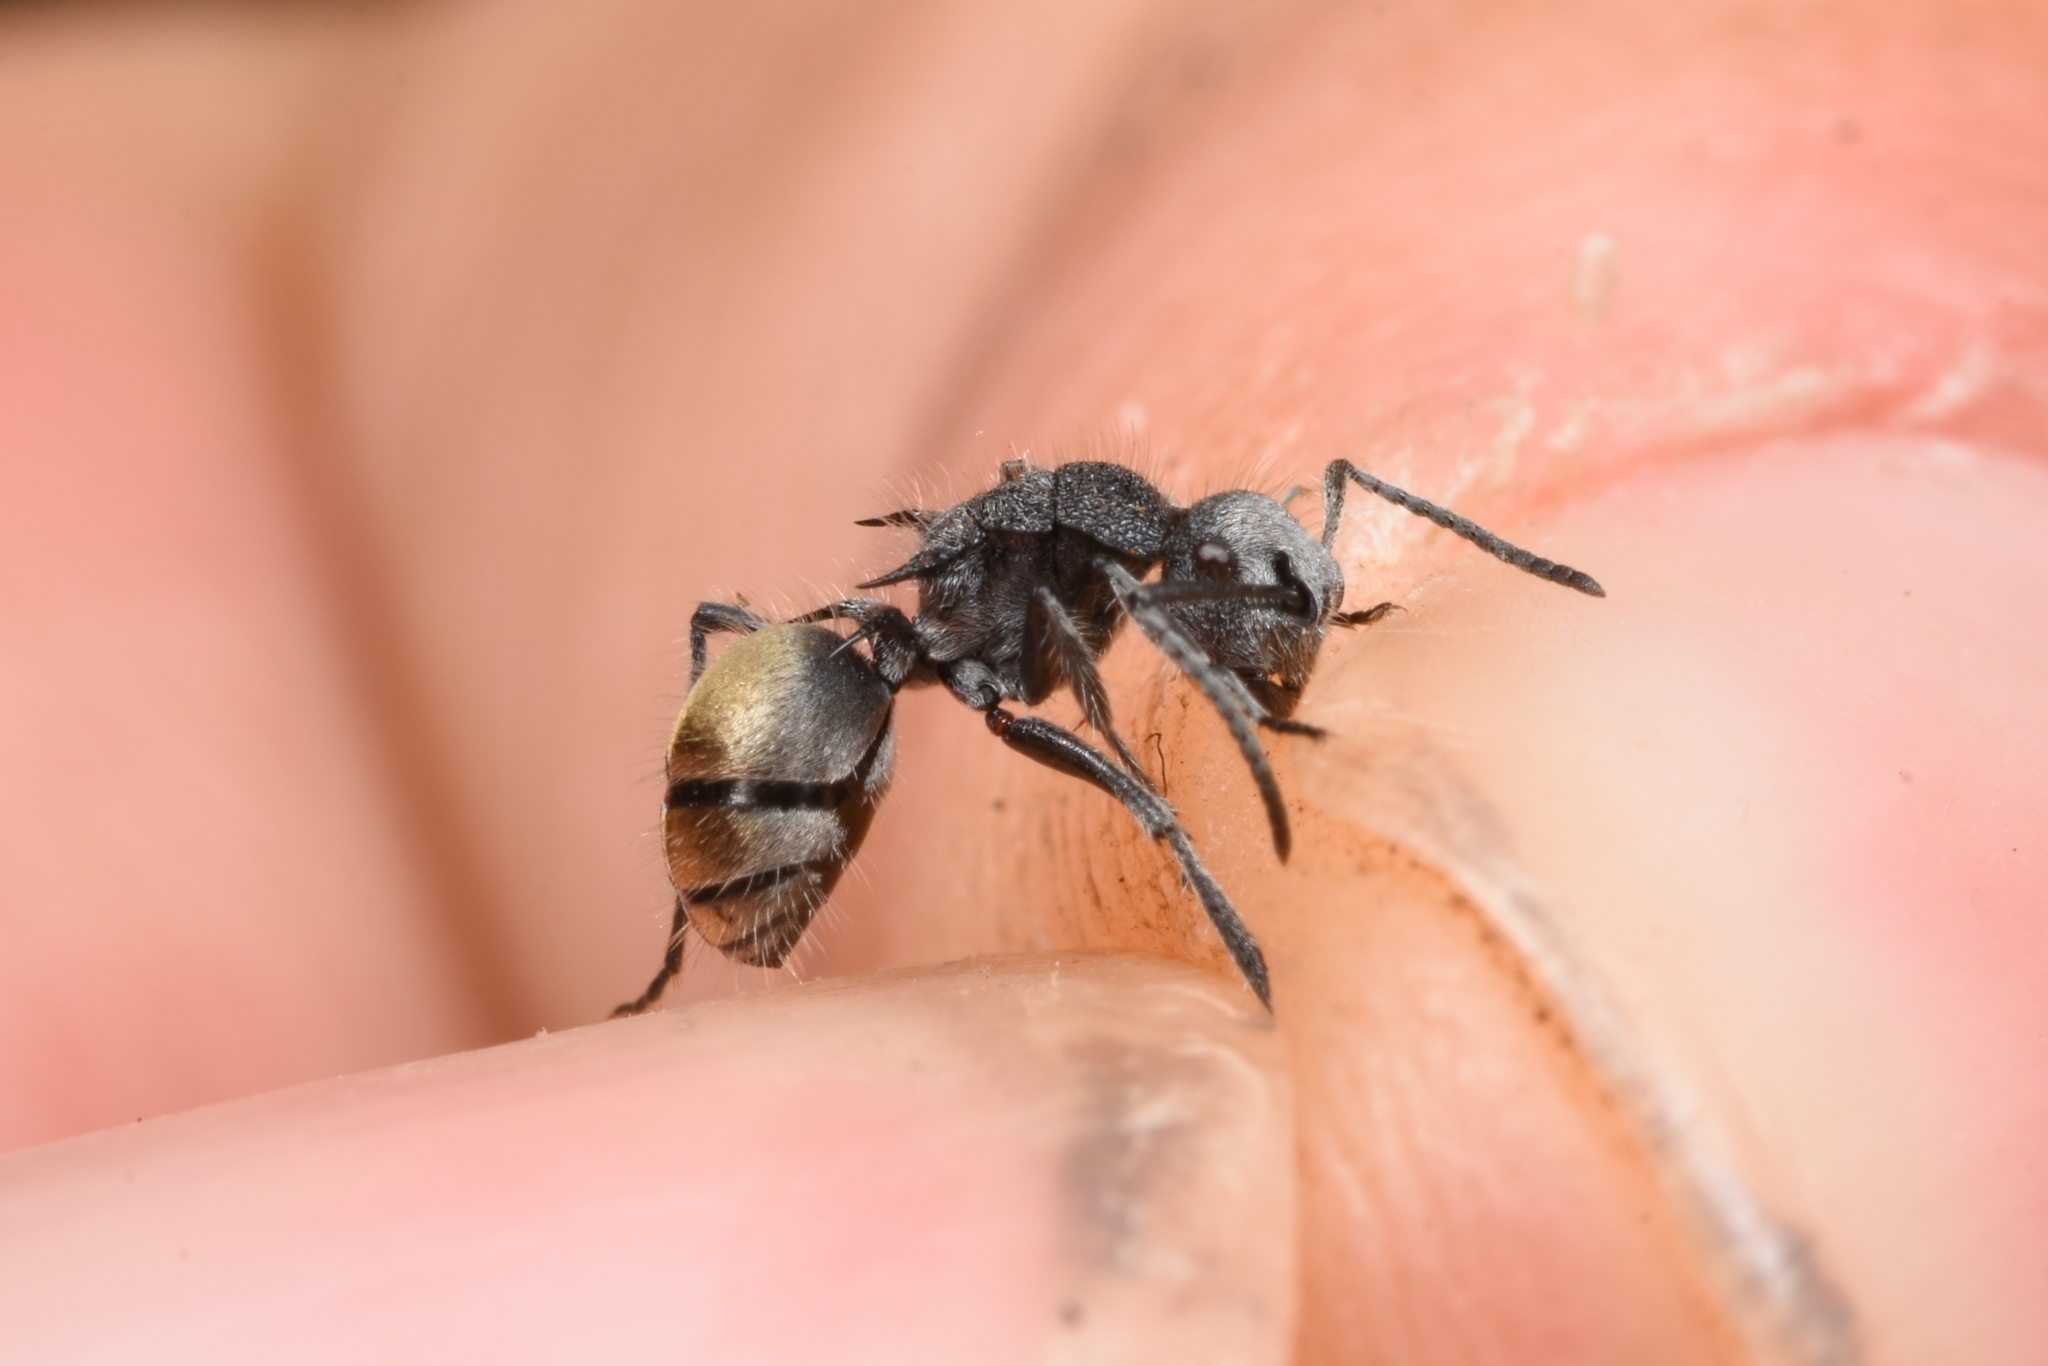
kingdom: Animalia
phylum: Arthropoda
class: Insecta
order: Hymenoptera
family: Formicidae
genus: Polyrhachis
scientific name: Polyrhachis senilis
